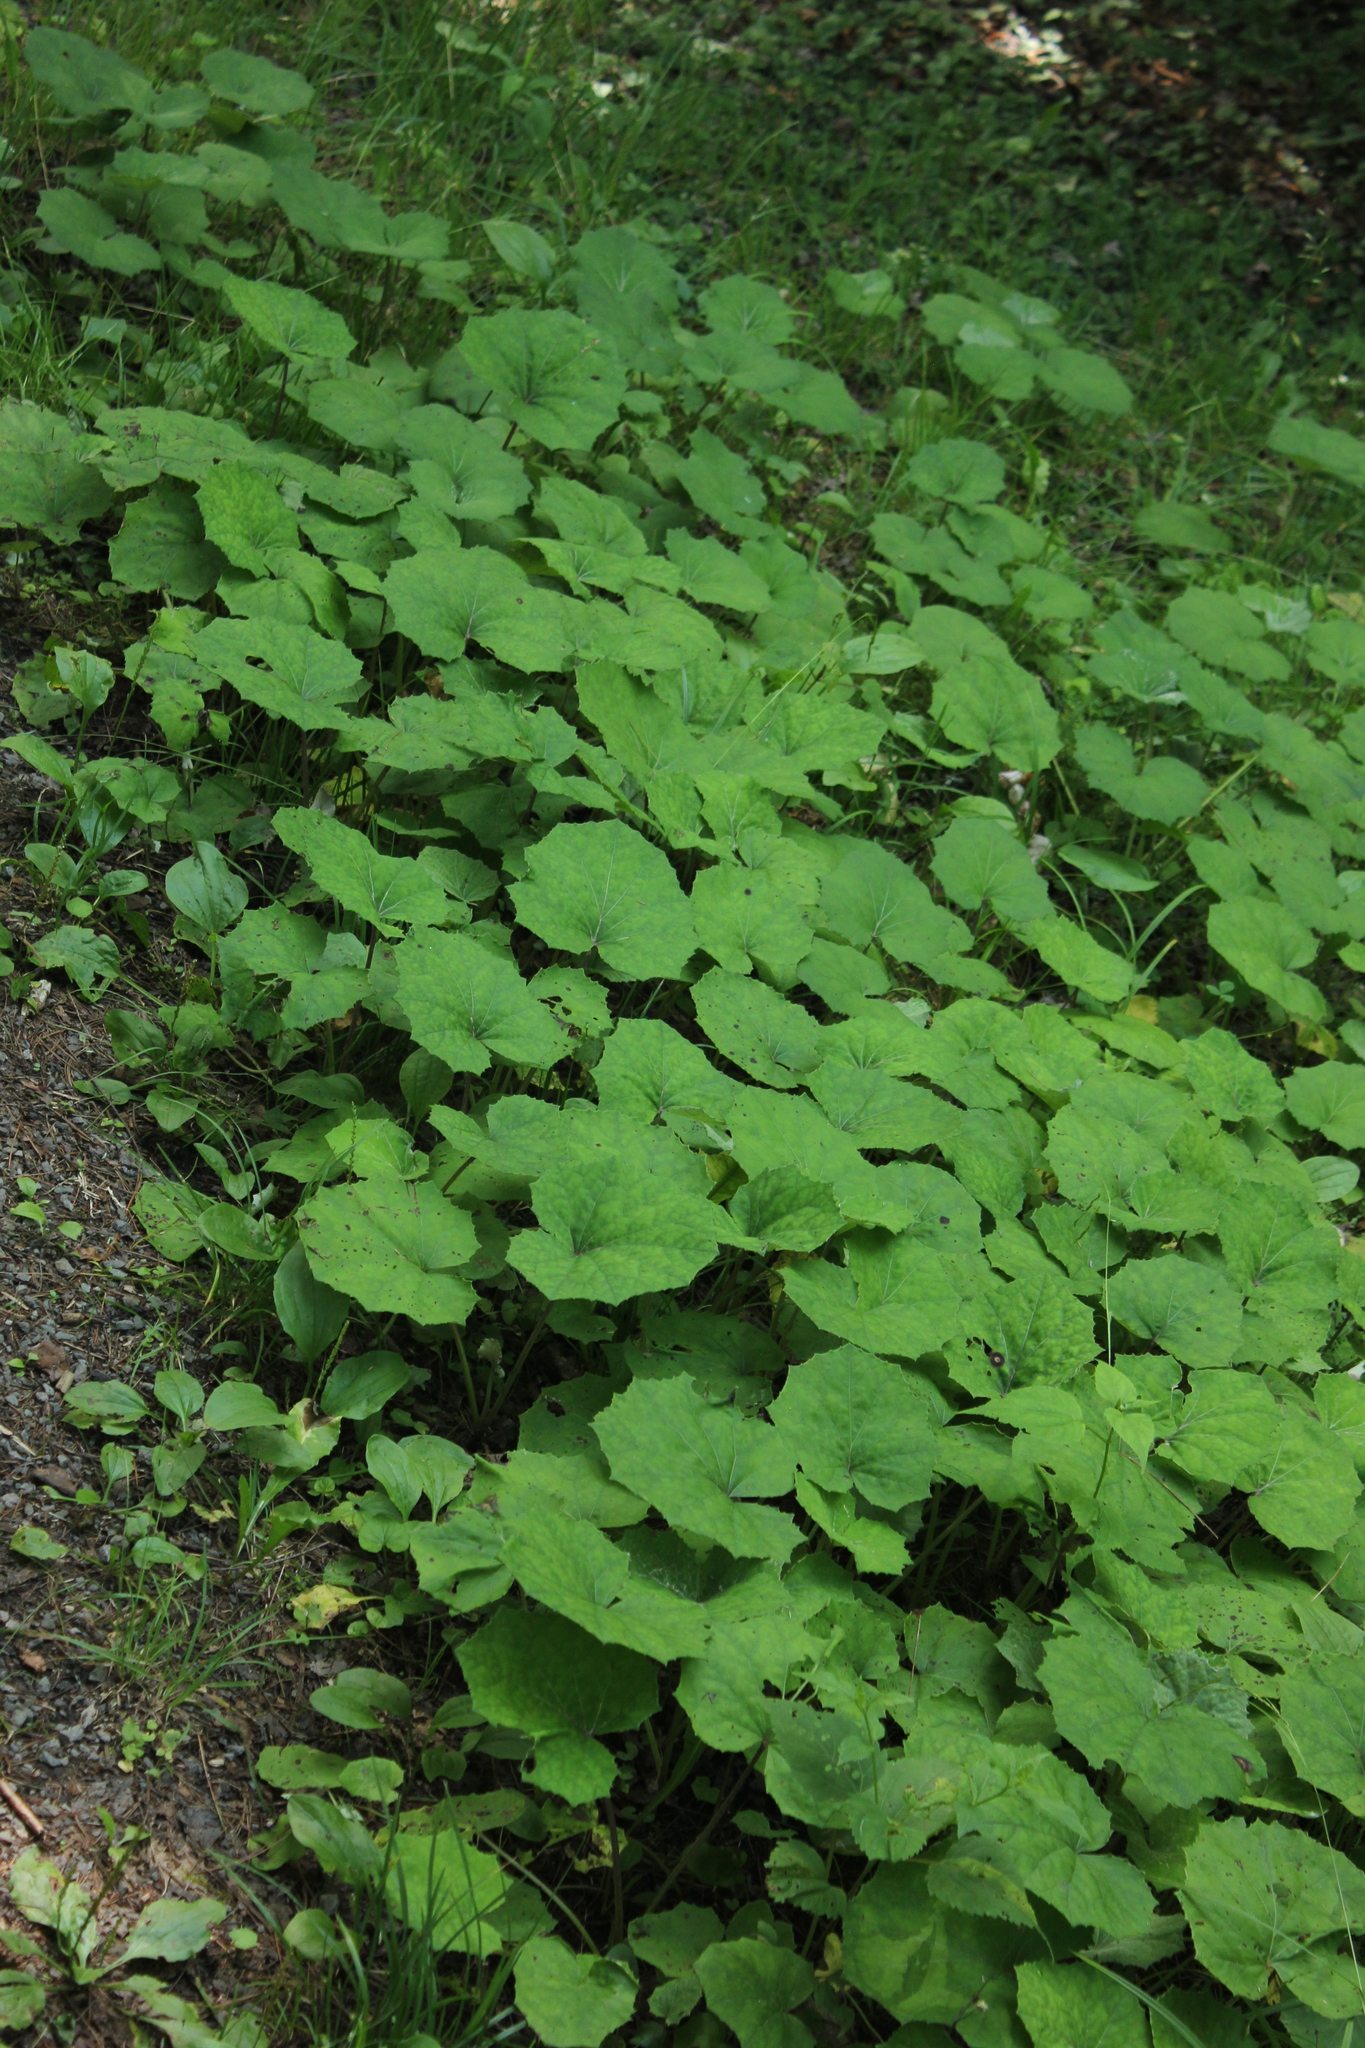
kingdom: Plantae
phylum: Tracheophyta
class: Magnoliopsida
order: Asterales
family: Asteraceae
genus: Tussilago
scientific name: Tussilago farfara
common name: Coltsfoot
